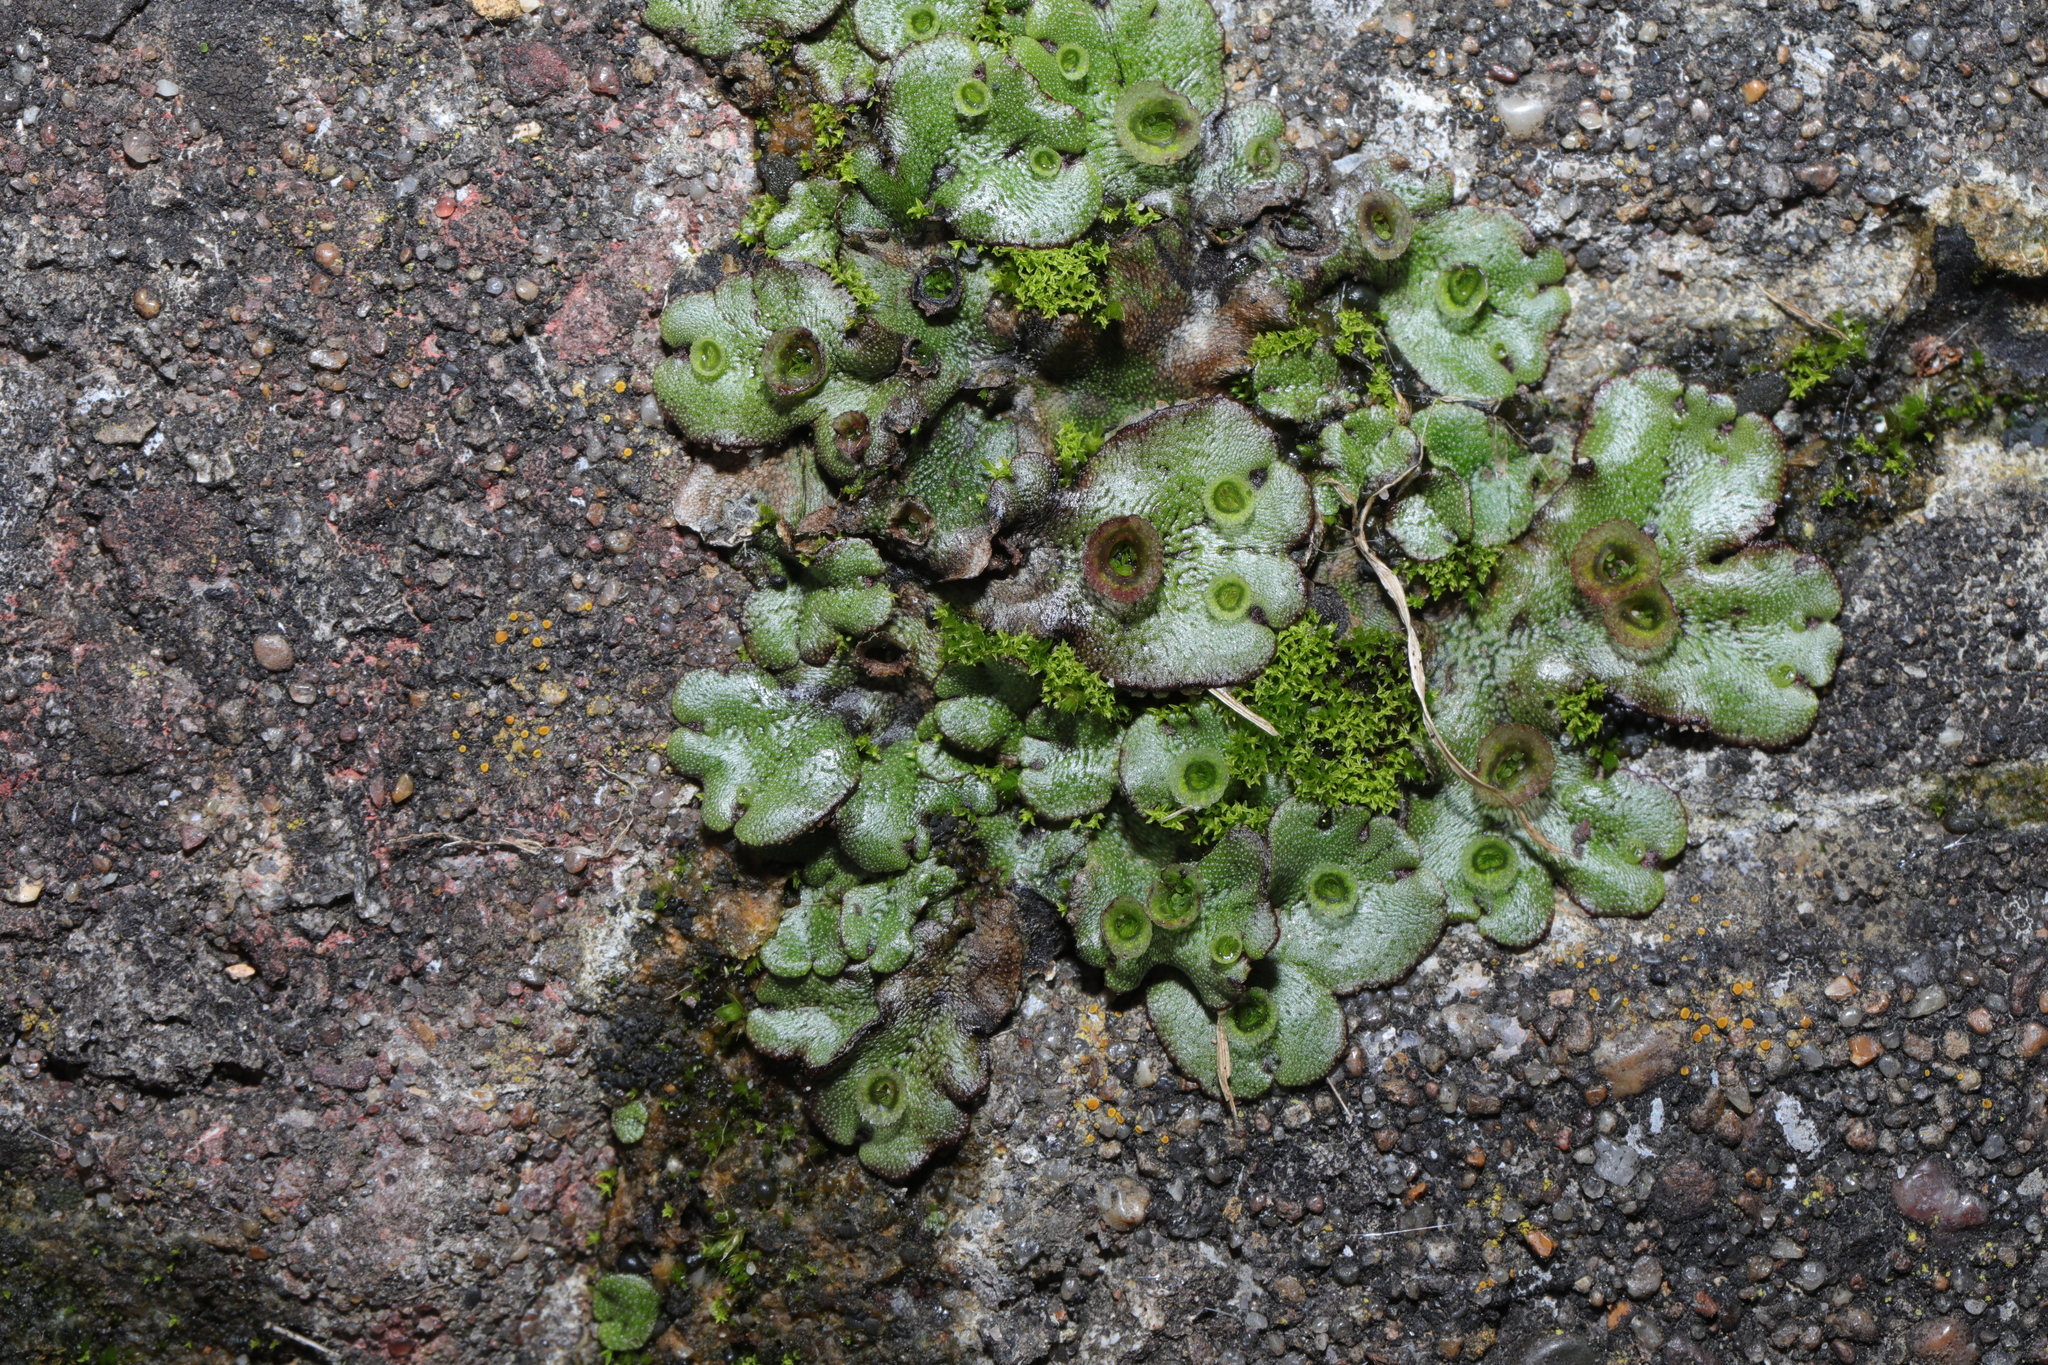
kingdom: Plantae
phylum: Marchantiophyta
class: Marchantiopsida
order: Marchantiales
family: Marchantiaceae
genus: Marchantia
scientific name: Marchantia polymorpha
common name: Common liverwort
